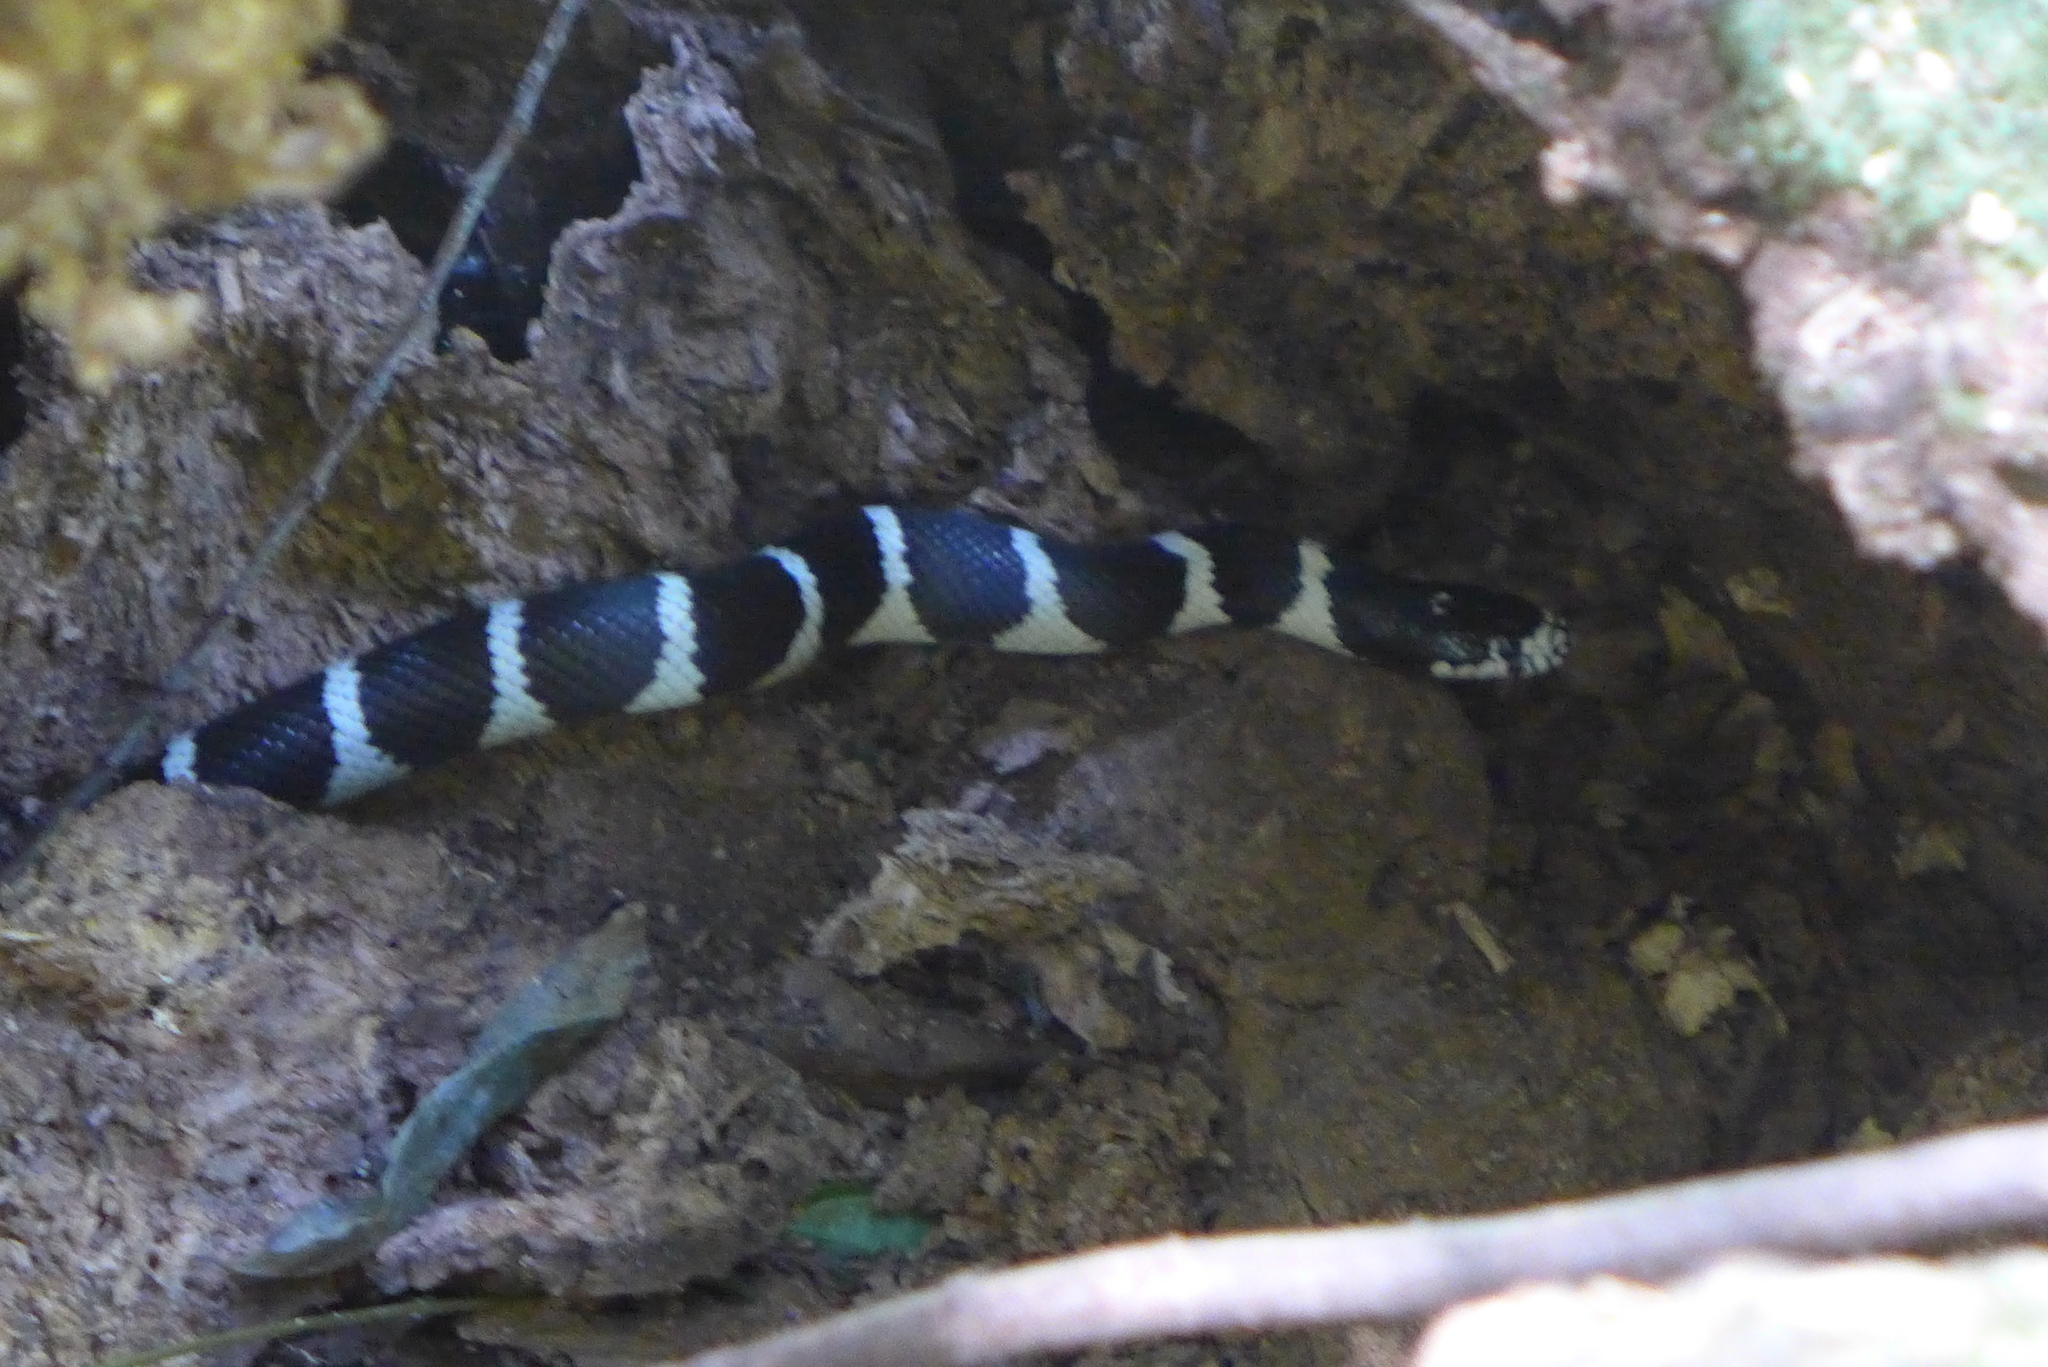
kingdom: Animalia
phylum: Chordata
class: Squamata
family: Colubridae
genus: Lampropeltis
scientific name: Lampropeltis californiae
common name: California kingsnake
